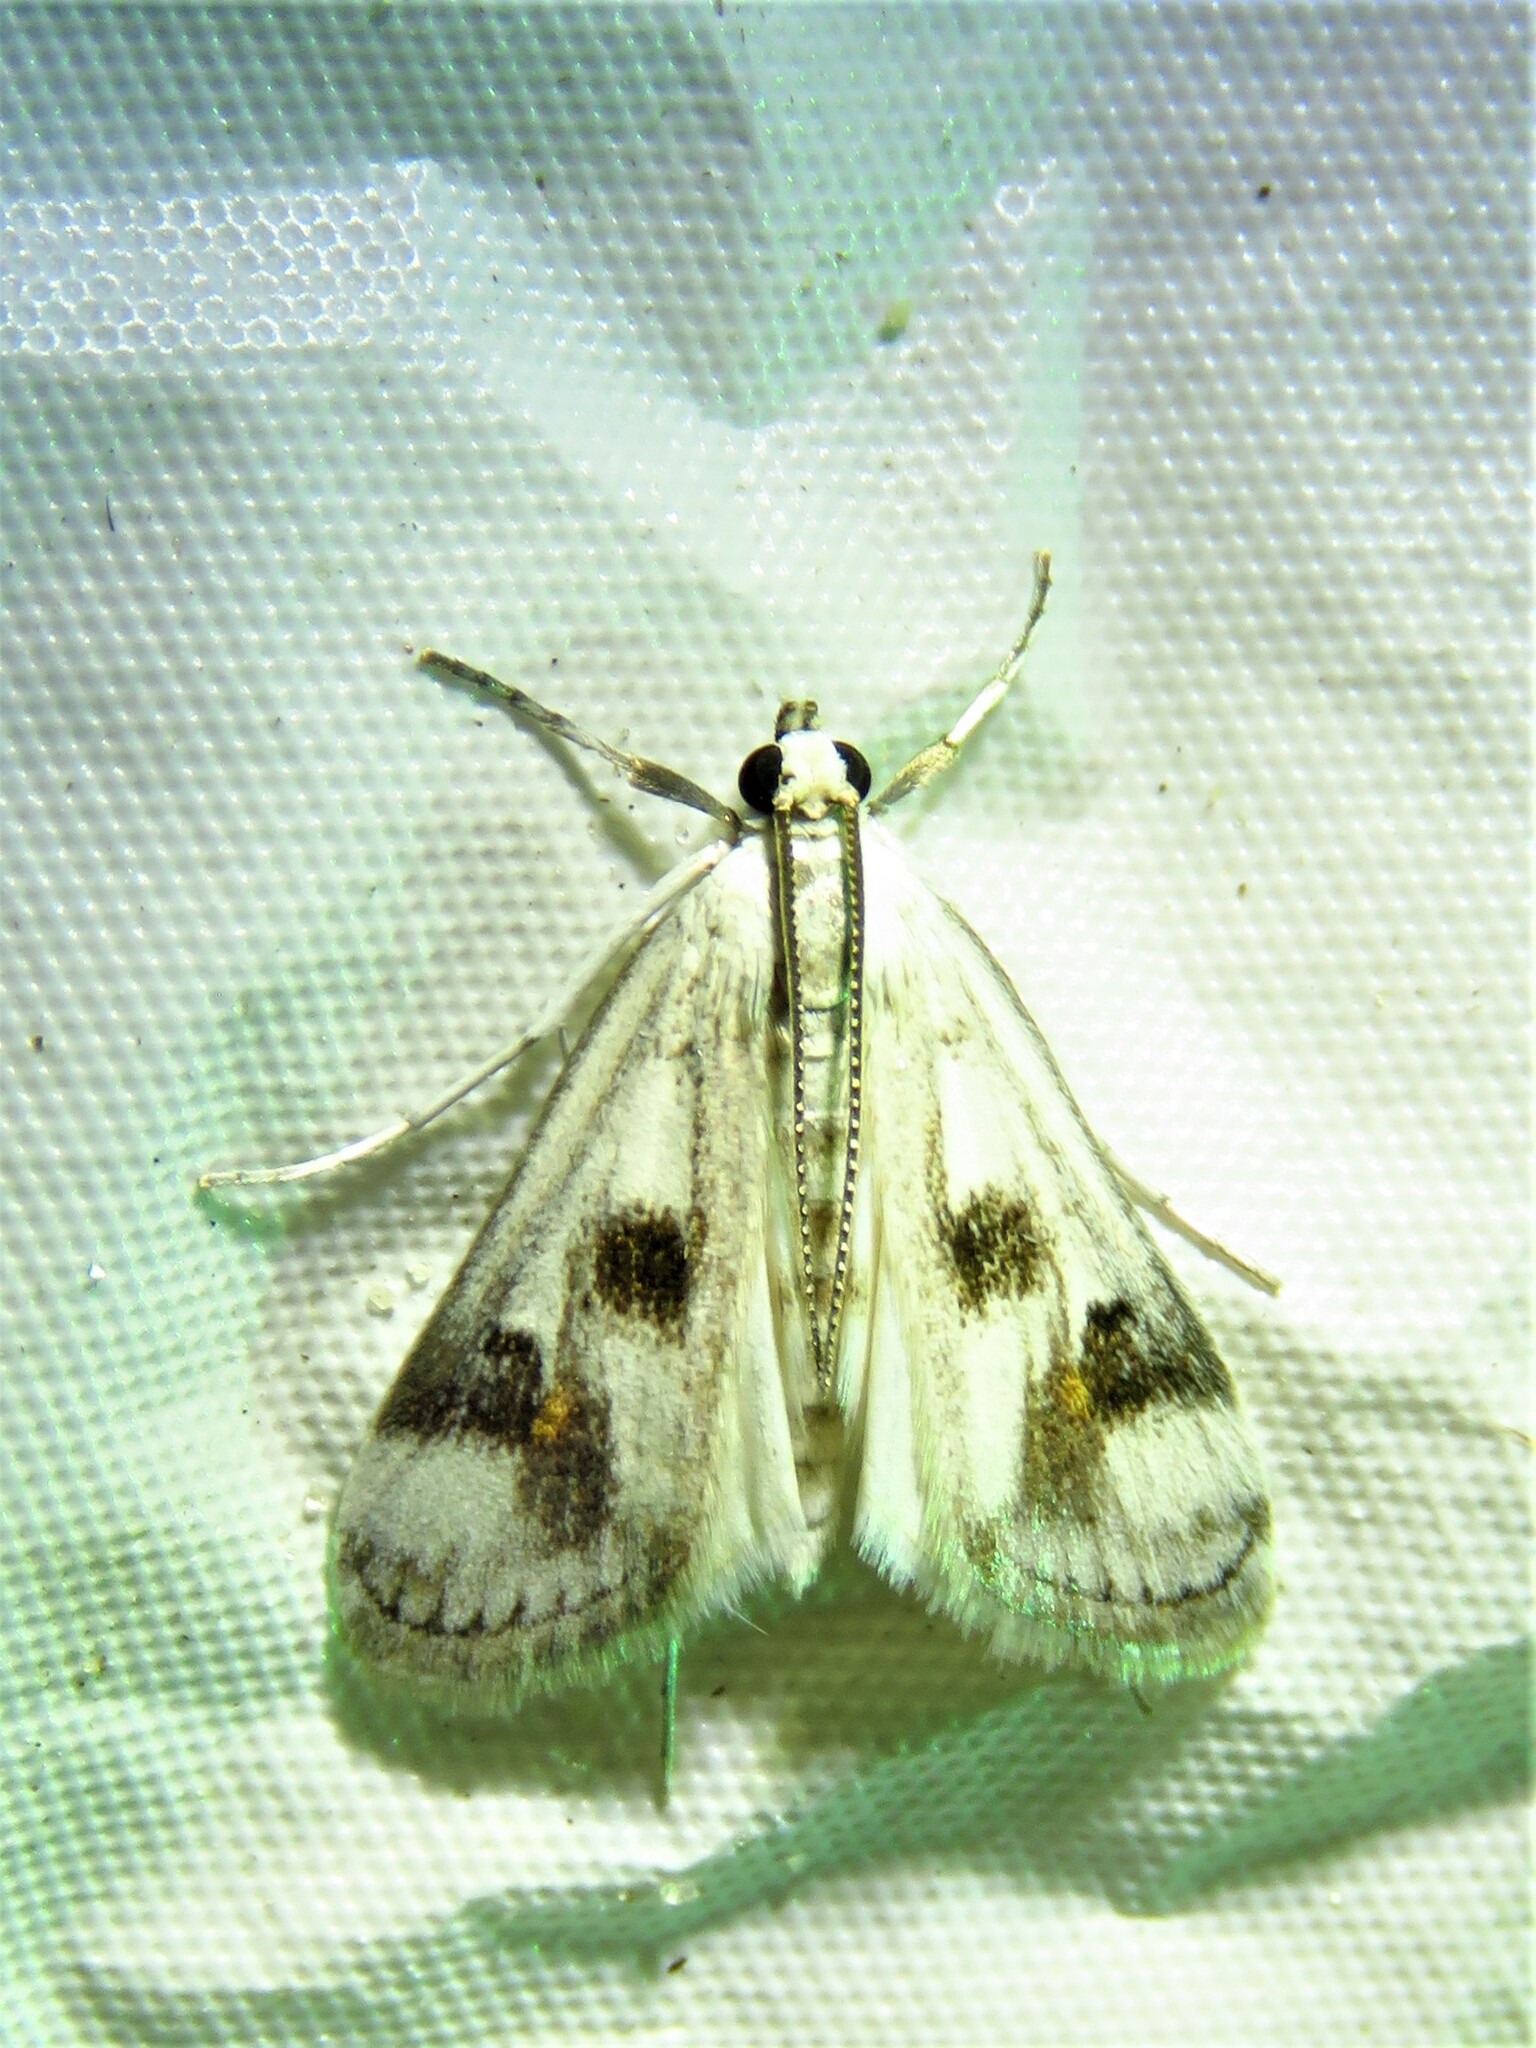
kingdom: Animalia
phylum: Arthropoda
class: Insecta
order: Lepidoptera
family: Crambidae
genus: Parapoynx
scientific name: Parapoynx maculalis
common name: Polymorphic pondweed moth
